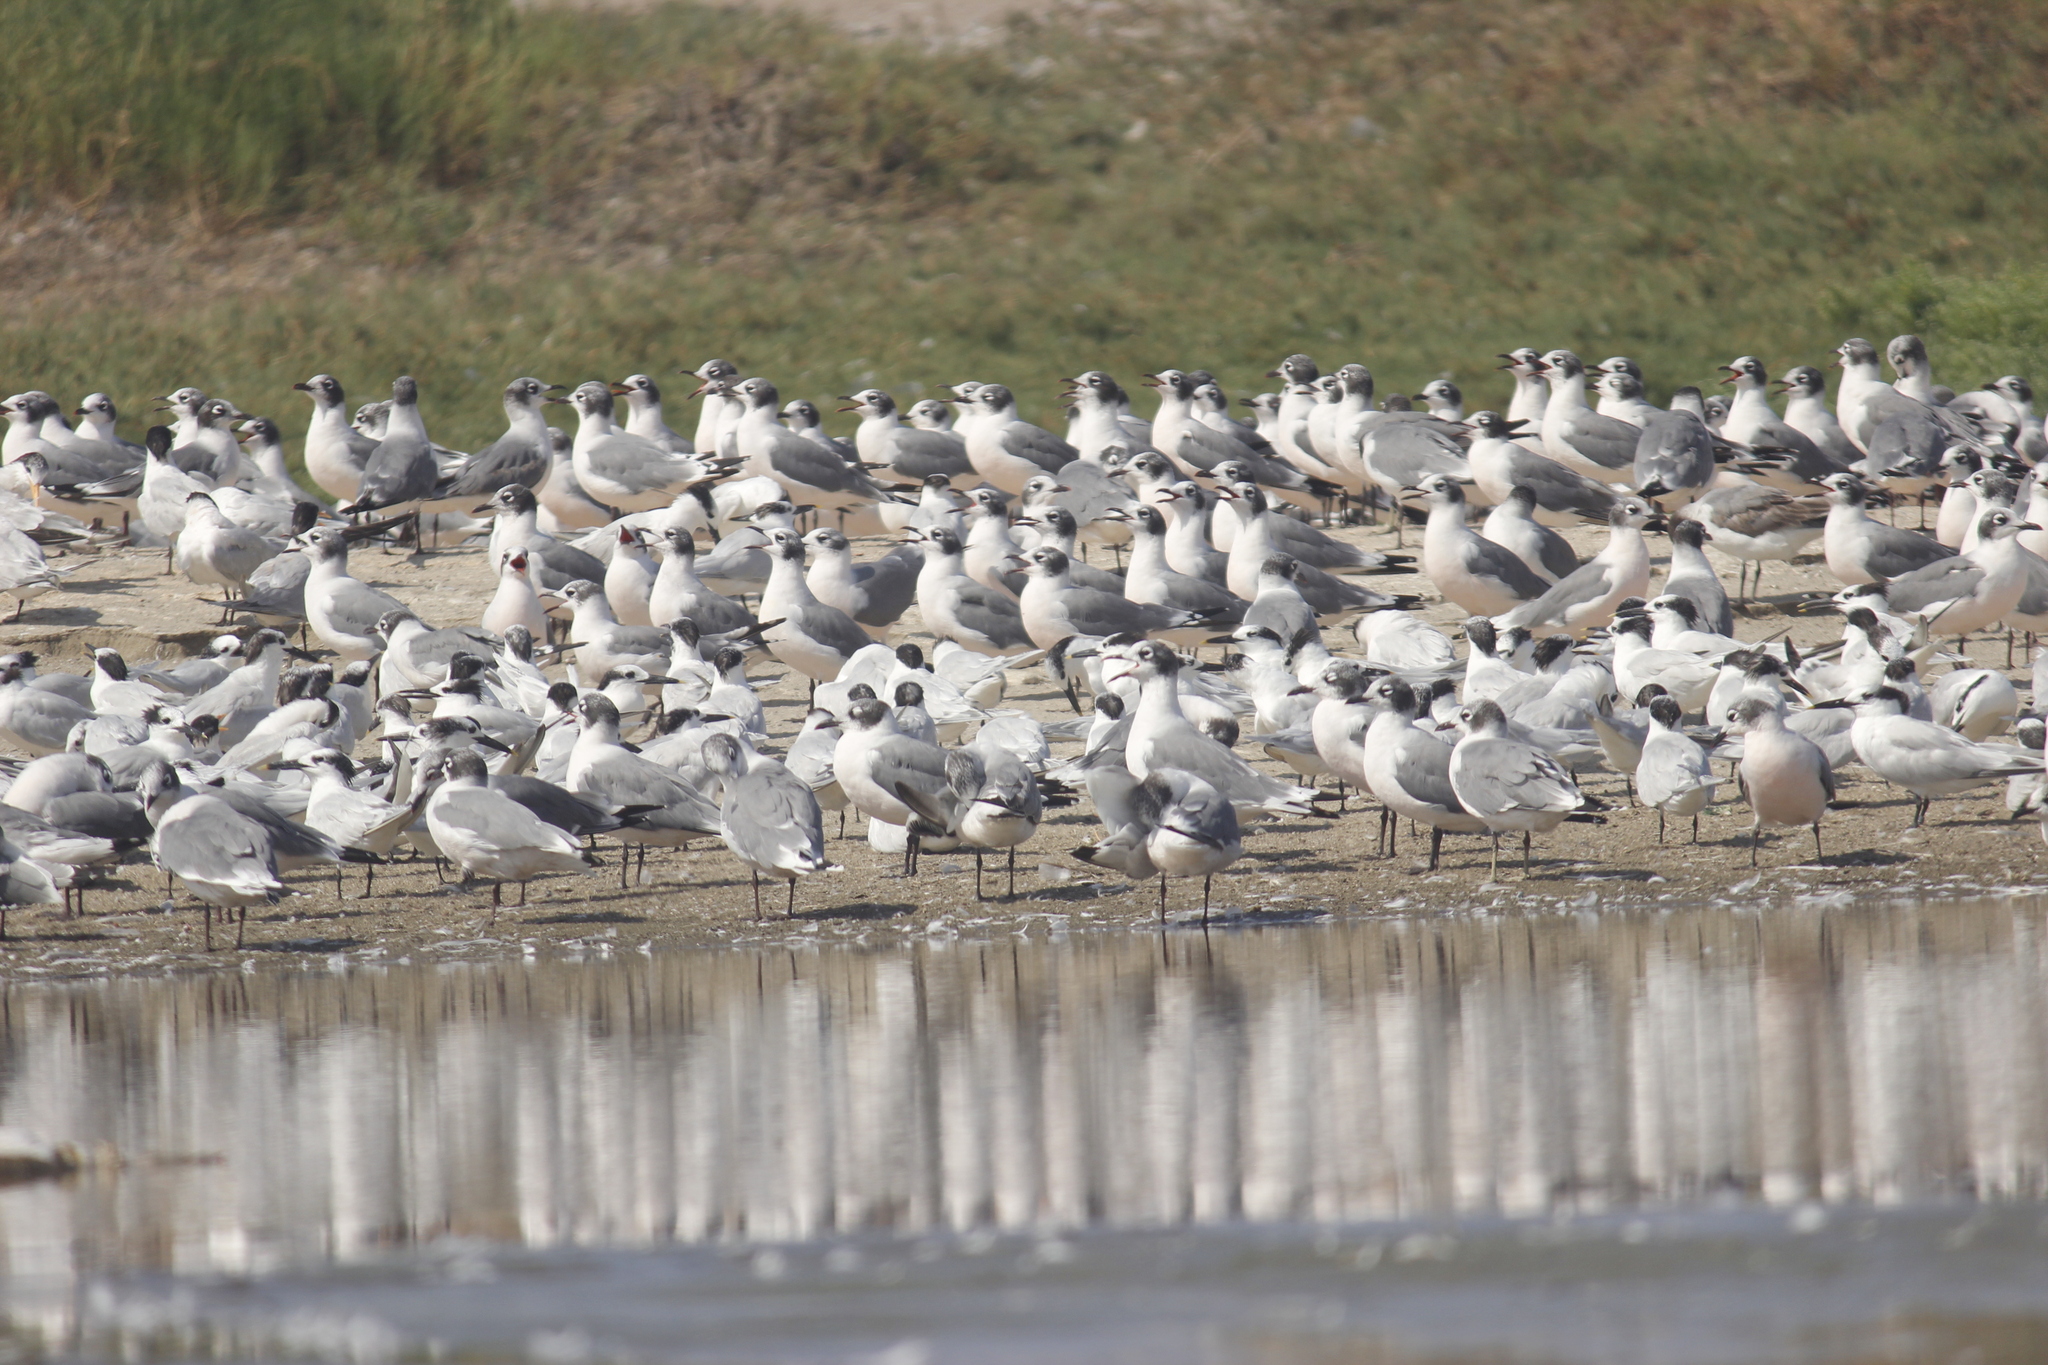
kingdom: Animalia
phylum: Chordata
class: Aves
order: Charadriiformes
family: Laridae
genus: Leucophaeus
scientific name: Leucophaeus pipixcan
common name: Franklin's gull
